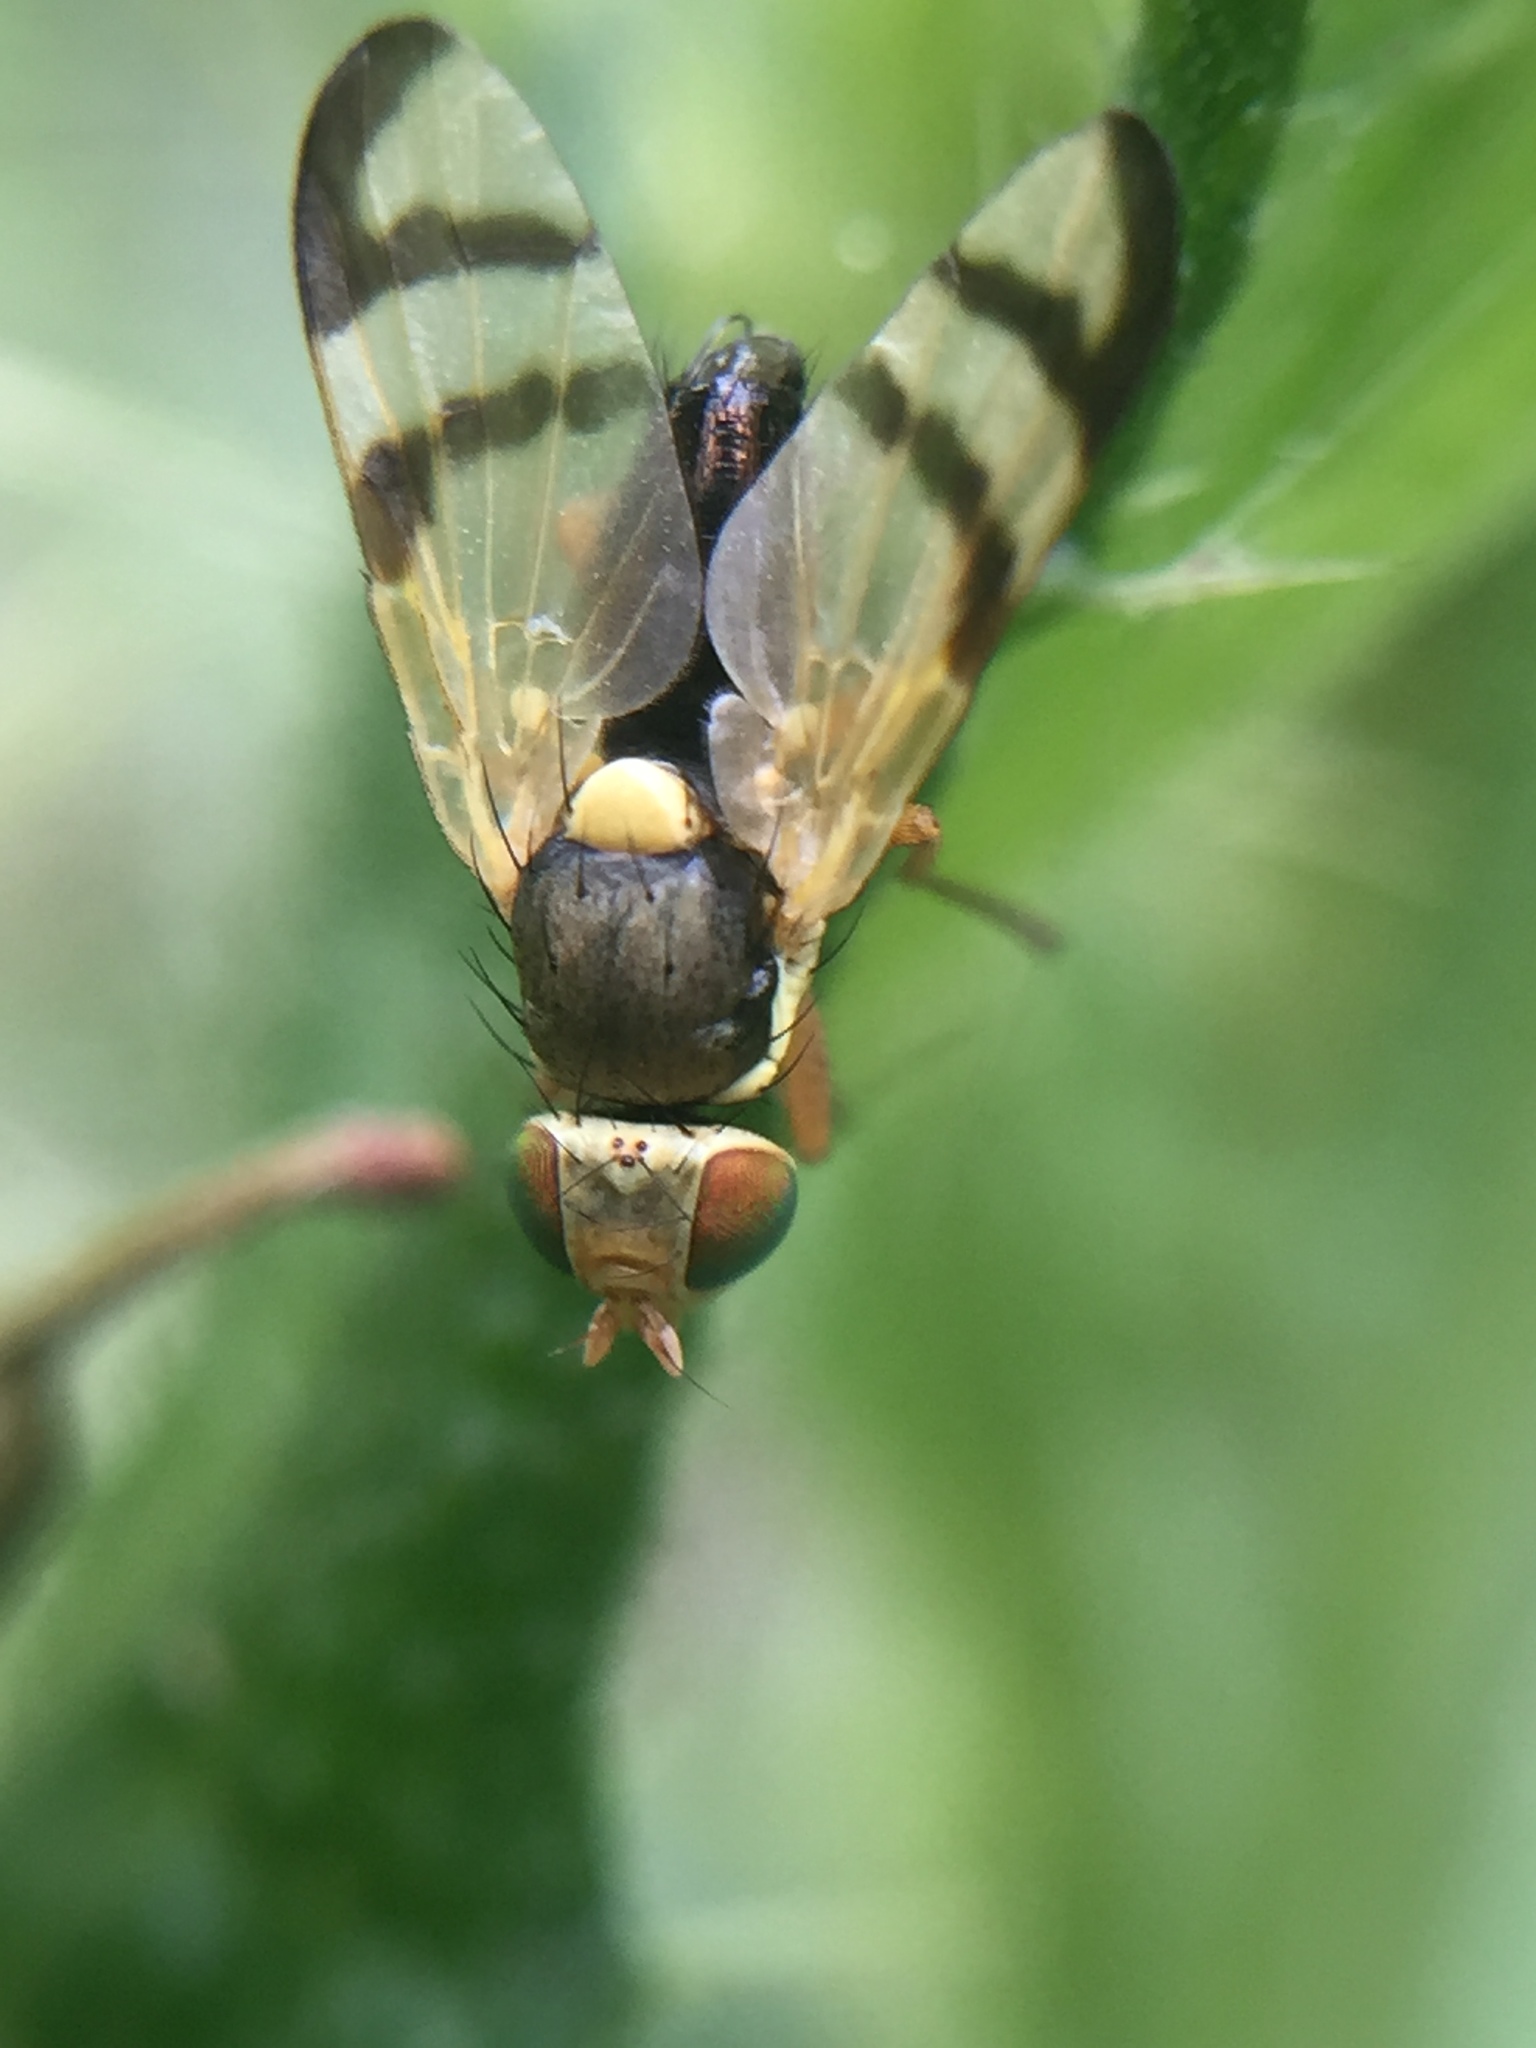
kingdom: Animalia
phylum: Arthropoda
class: Insecta
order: Diptera
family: Tephritidae
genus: Urophora
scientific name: Urophora stylata
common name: Fruit fly
